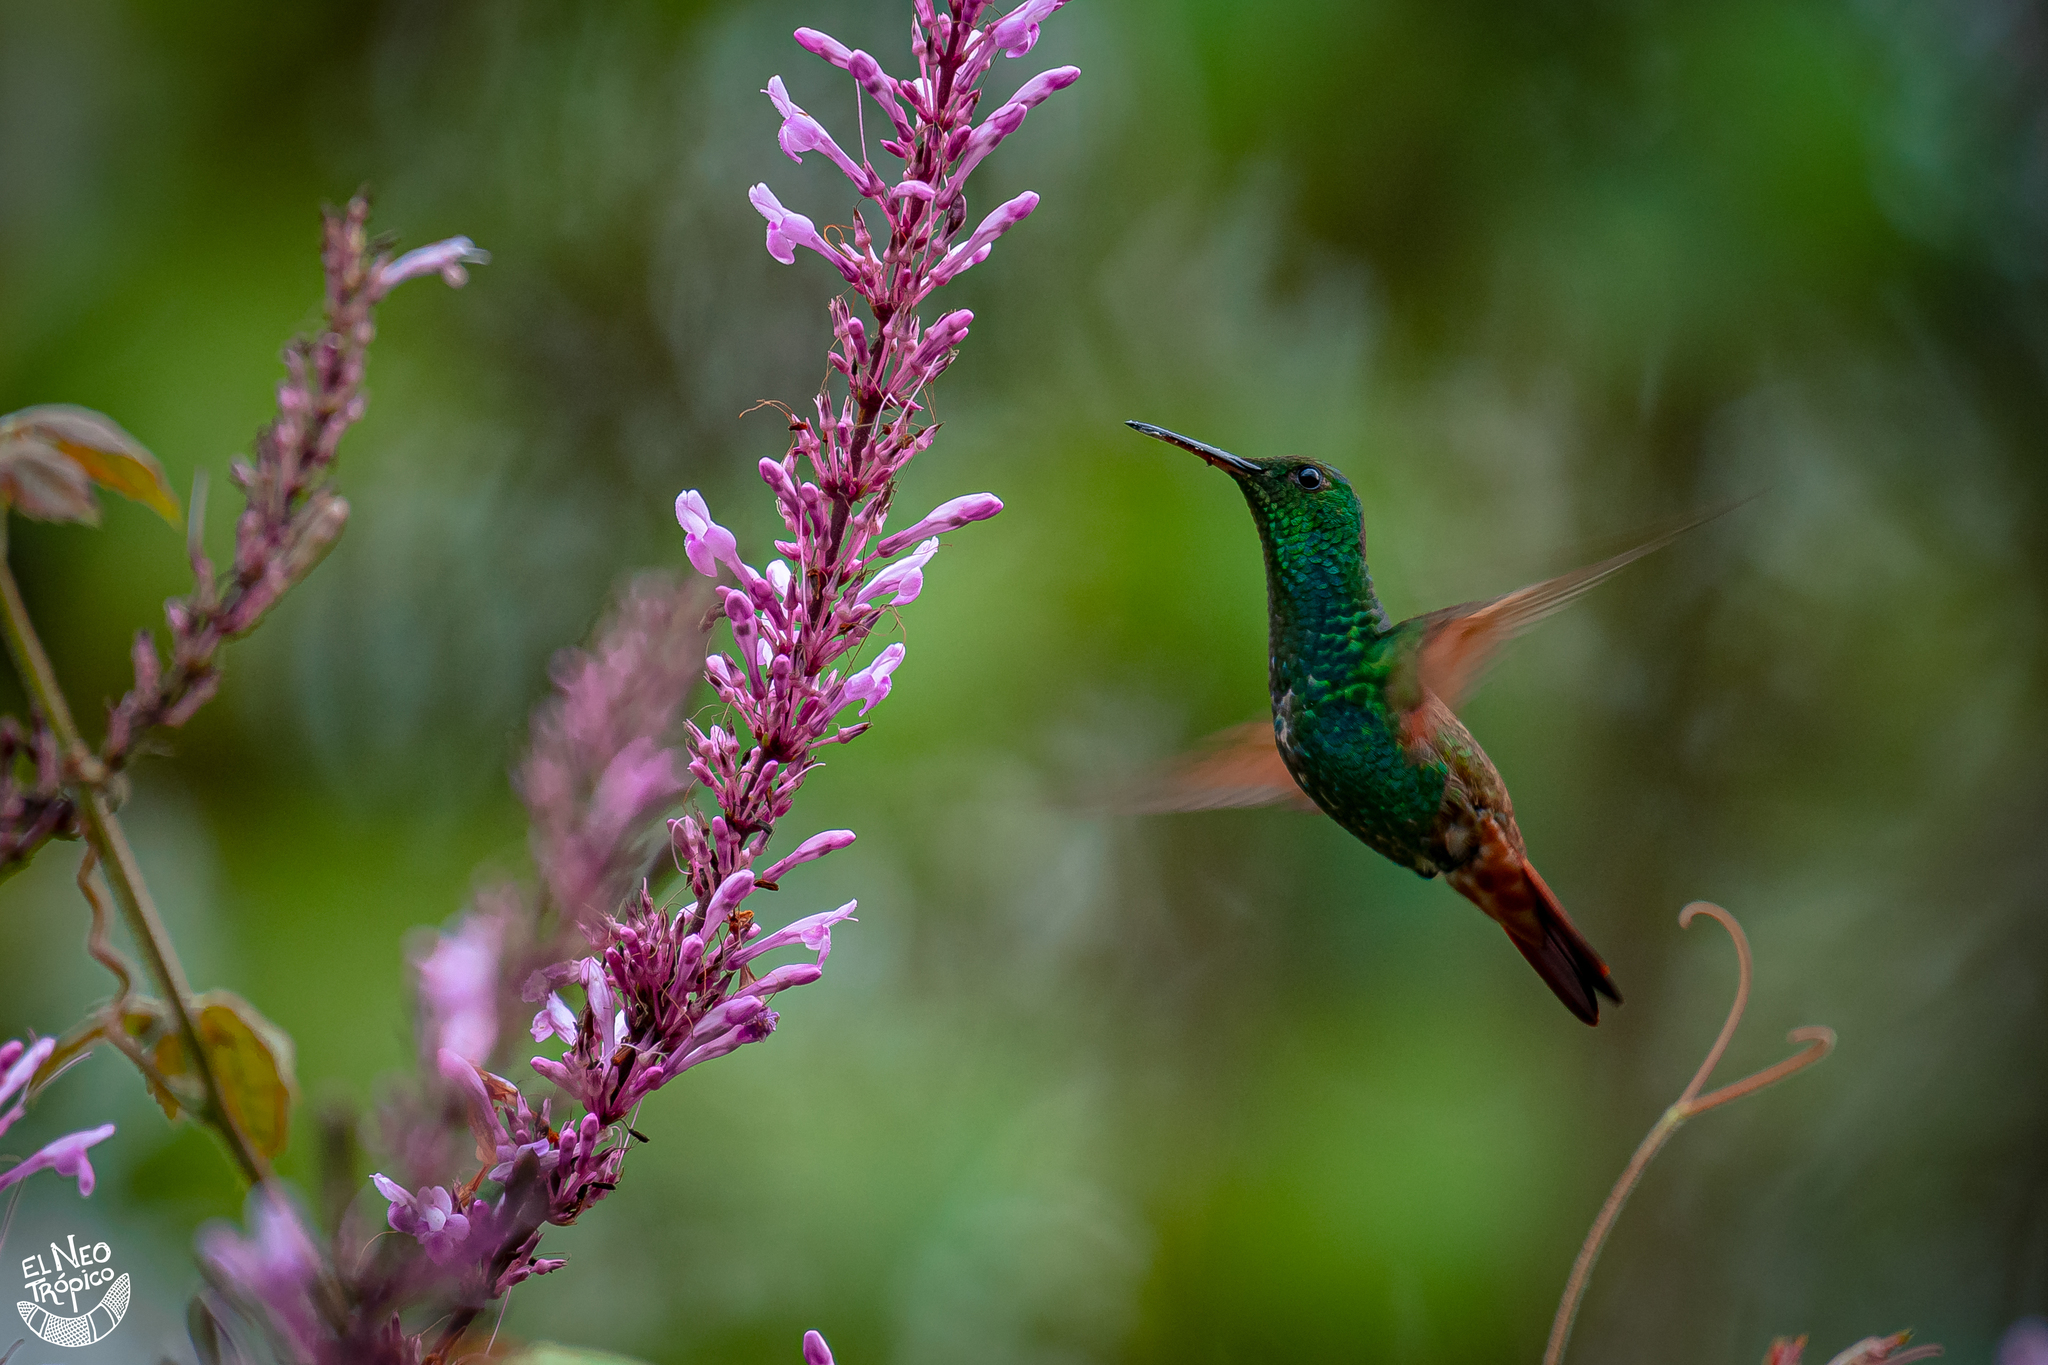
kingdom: Animalia
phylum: Chordata
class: Aves
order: Apodiformes
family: Trochilidae
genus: Saucerottia
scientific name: Saucerottia beryllina
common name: Berylline hummingbird
